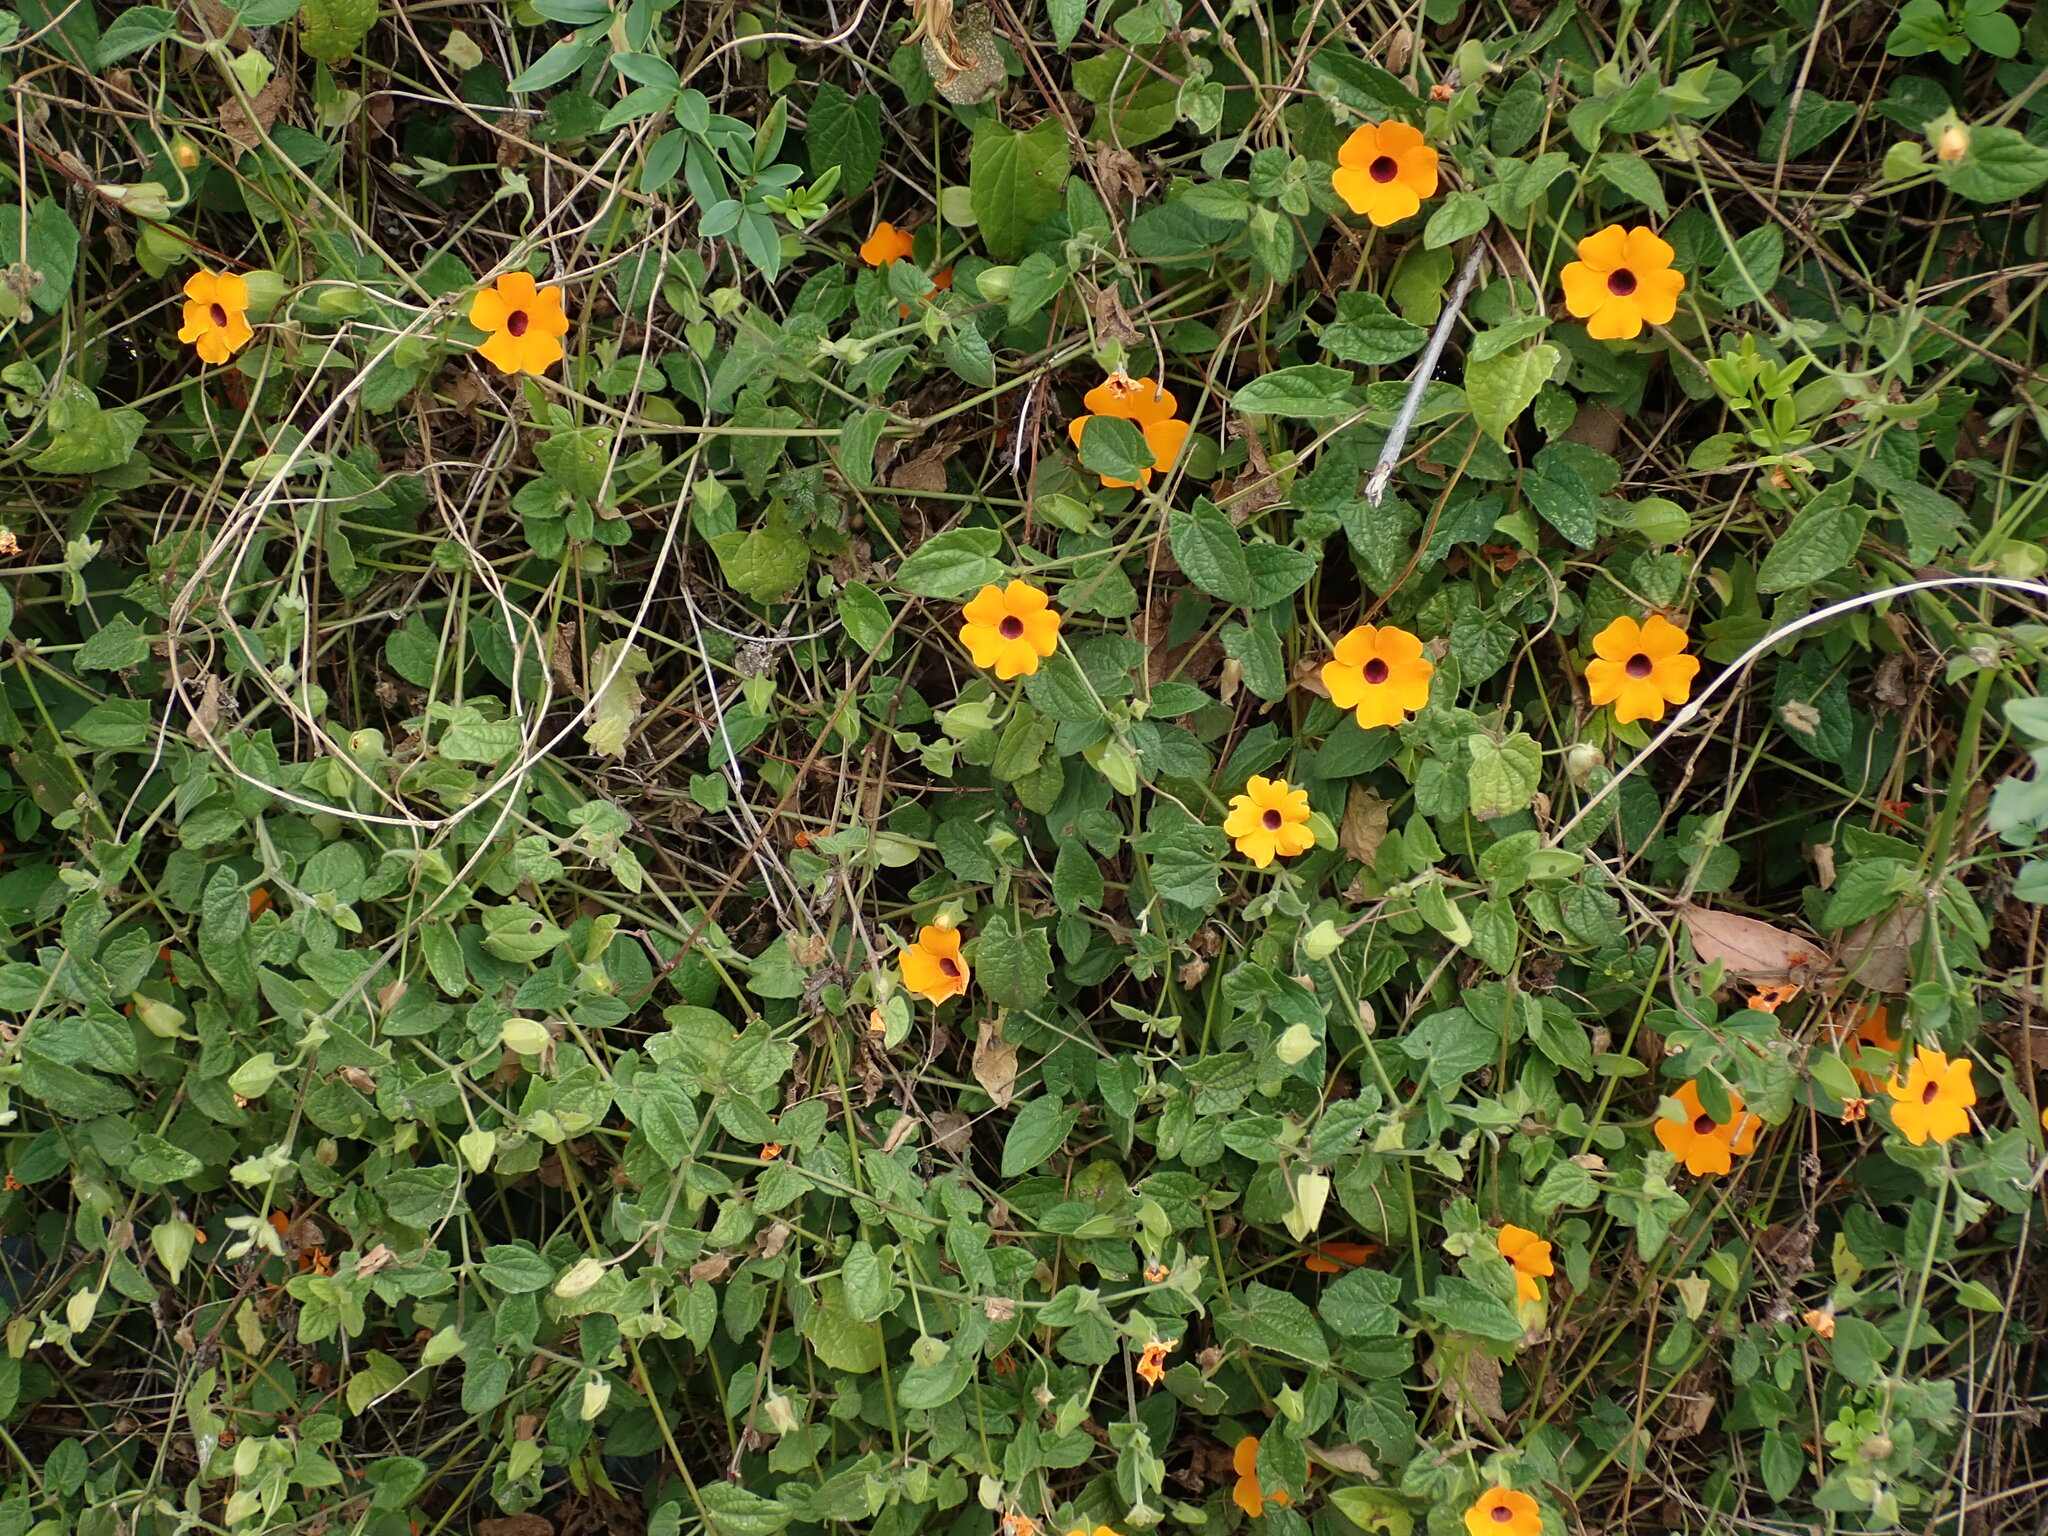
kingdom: Plantae
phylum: Tracheophyta
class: Magnoliopsida
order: Lamiales
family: Acanthaceae
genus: Thunbergia
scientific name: Thunbergia alata
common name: Blackeyed susan vine
